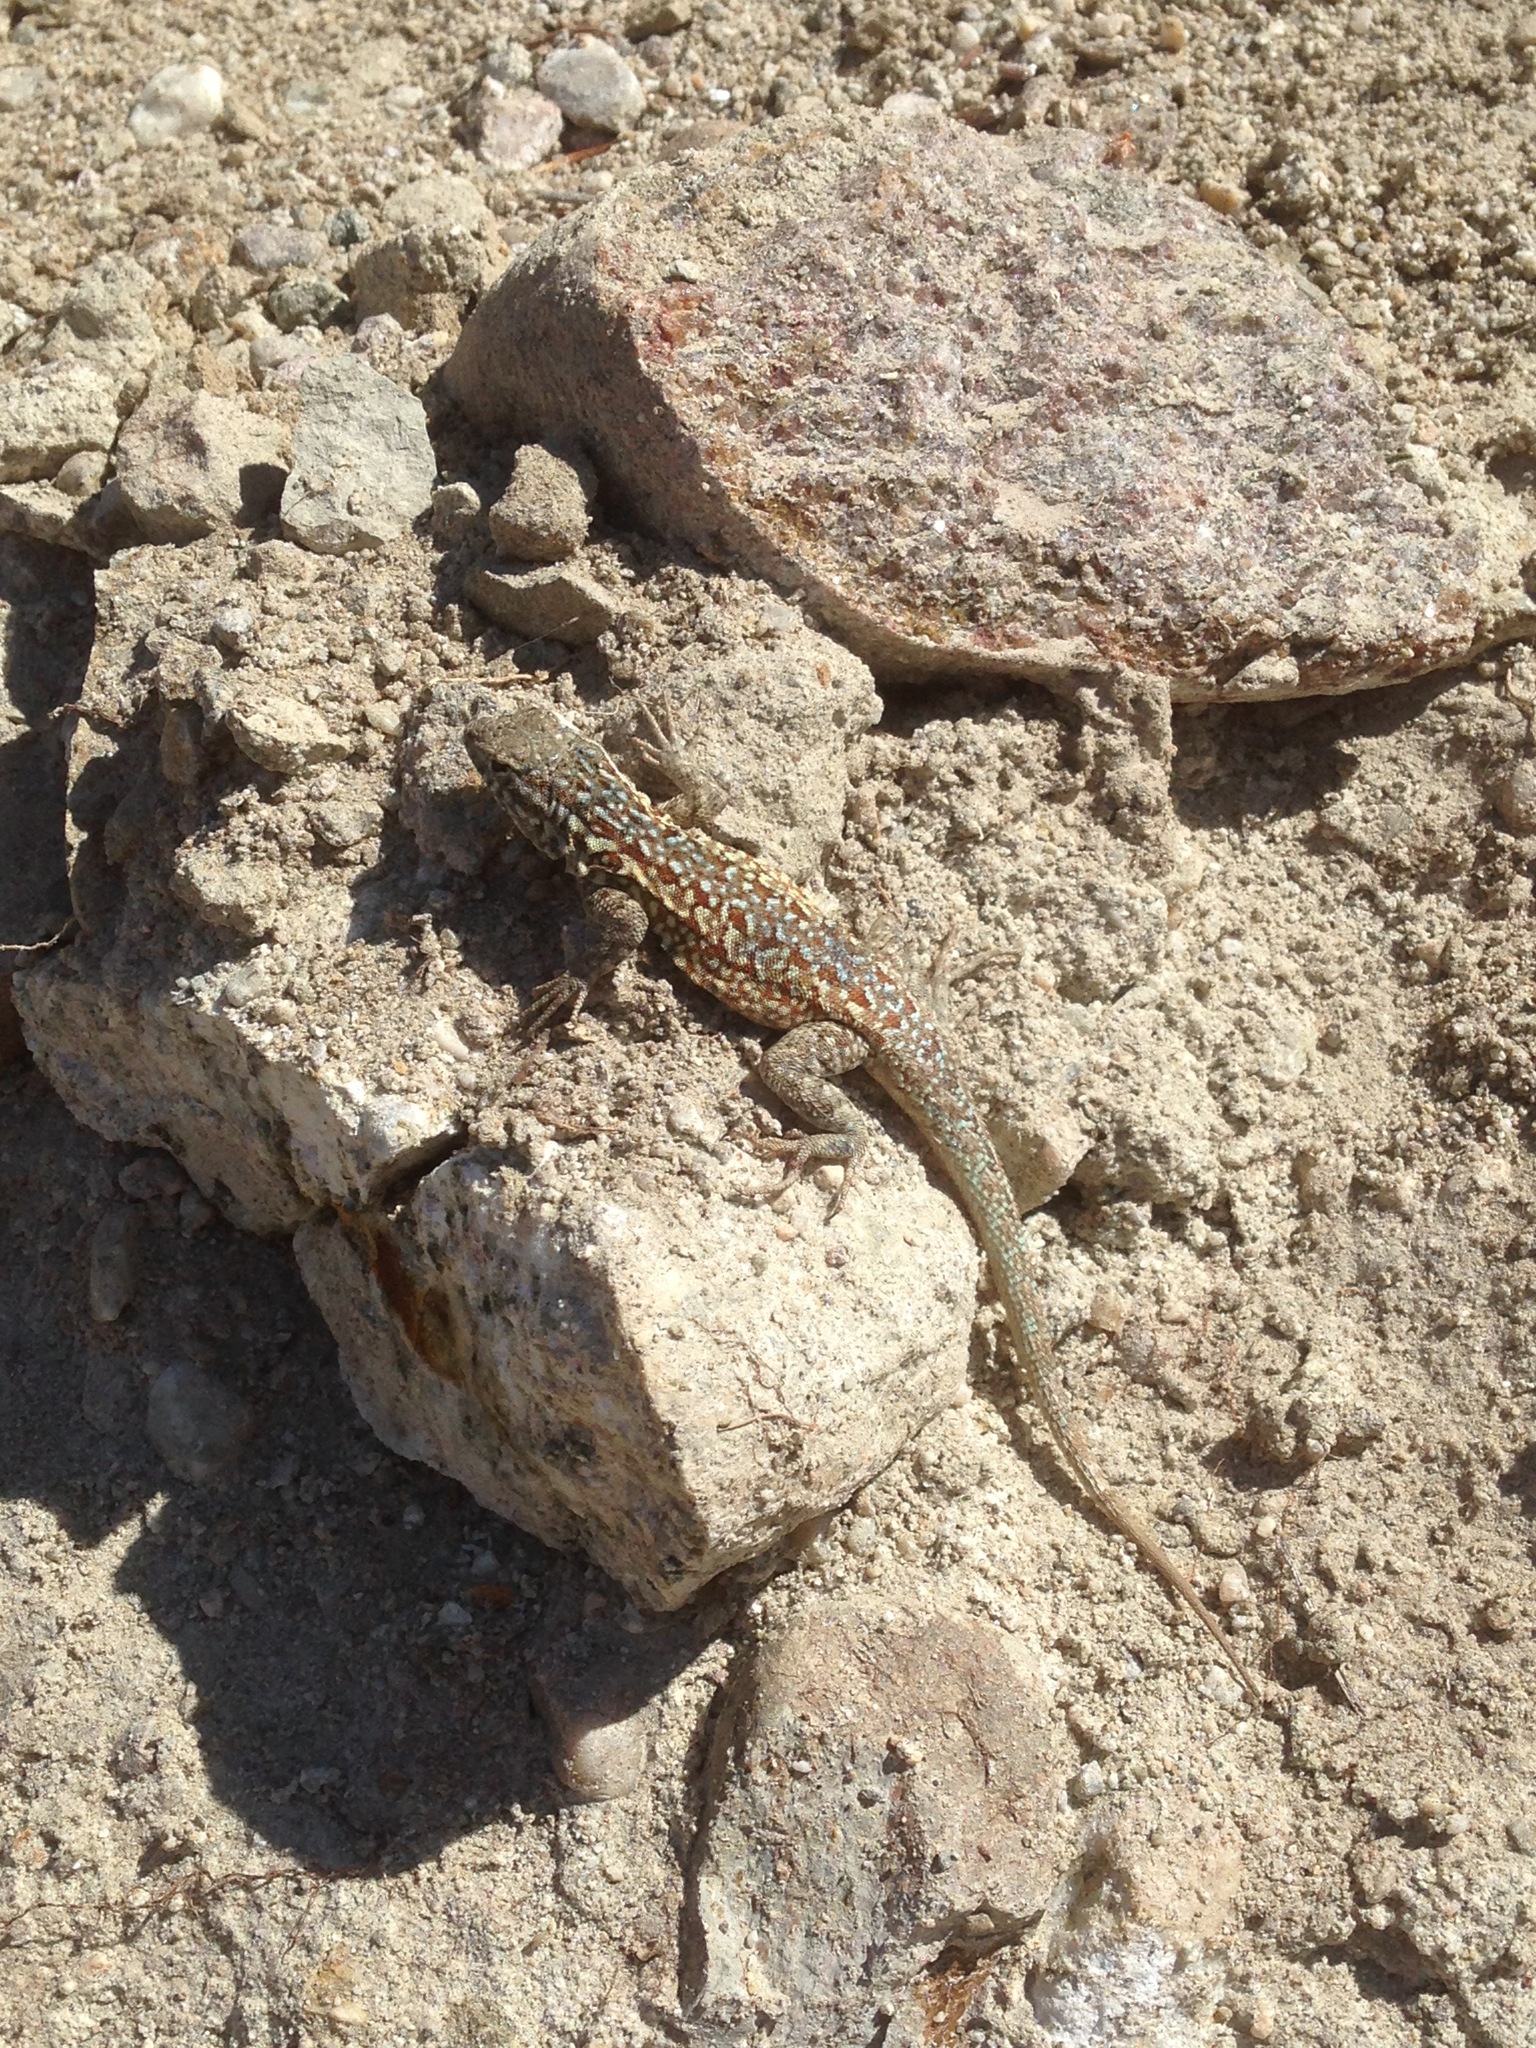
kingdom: Animalia
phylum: Chordata
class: Squamata
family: Phrynosomatidae
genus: Uta
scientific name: Uta stansburiana
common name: Side-blotched lizard
